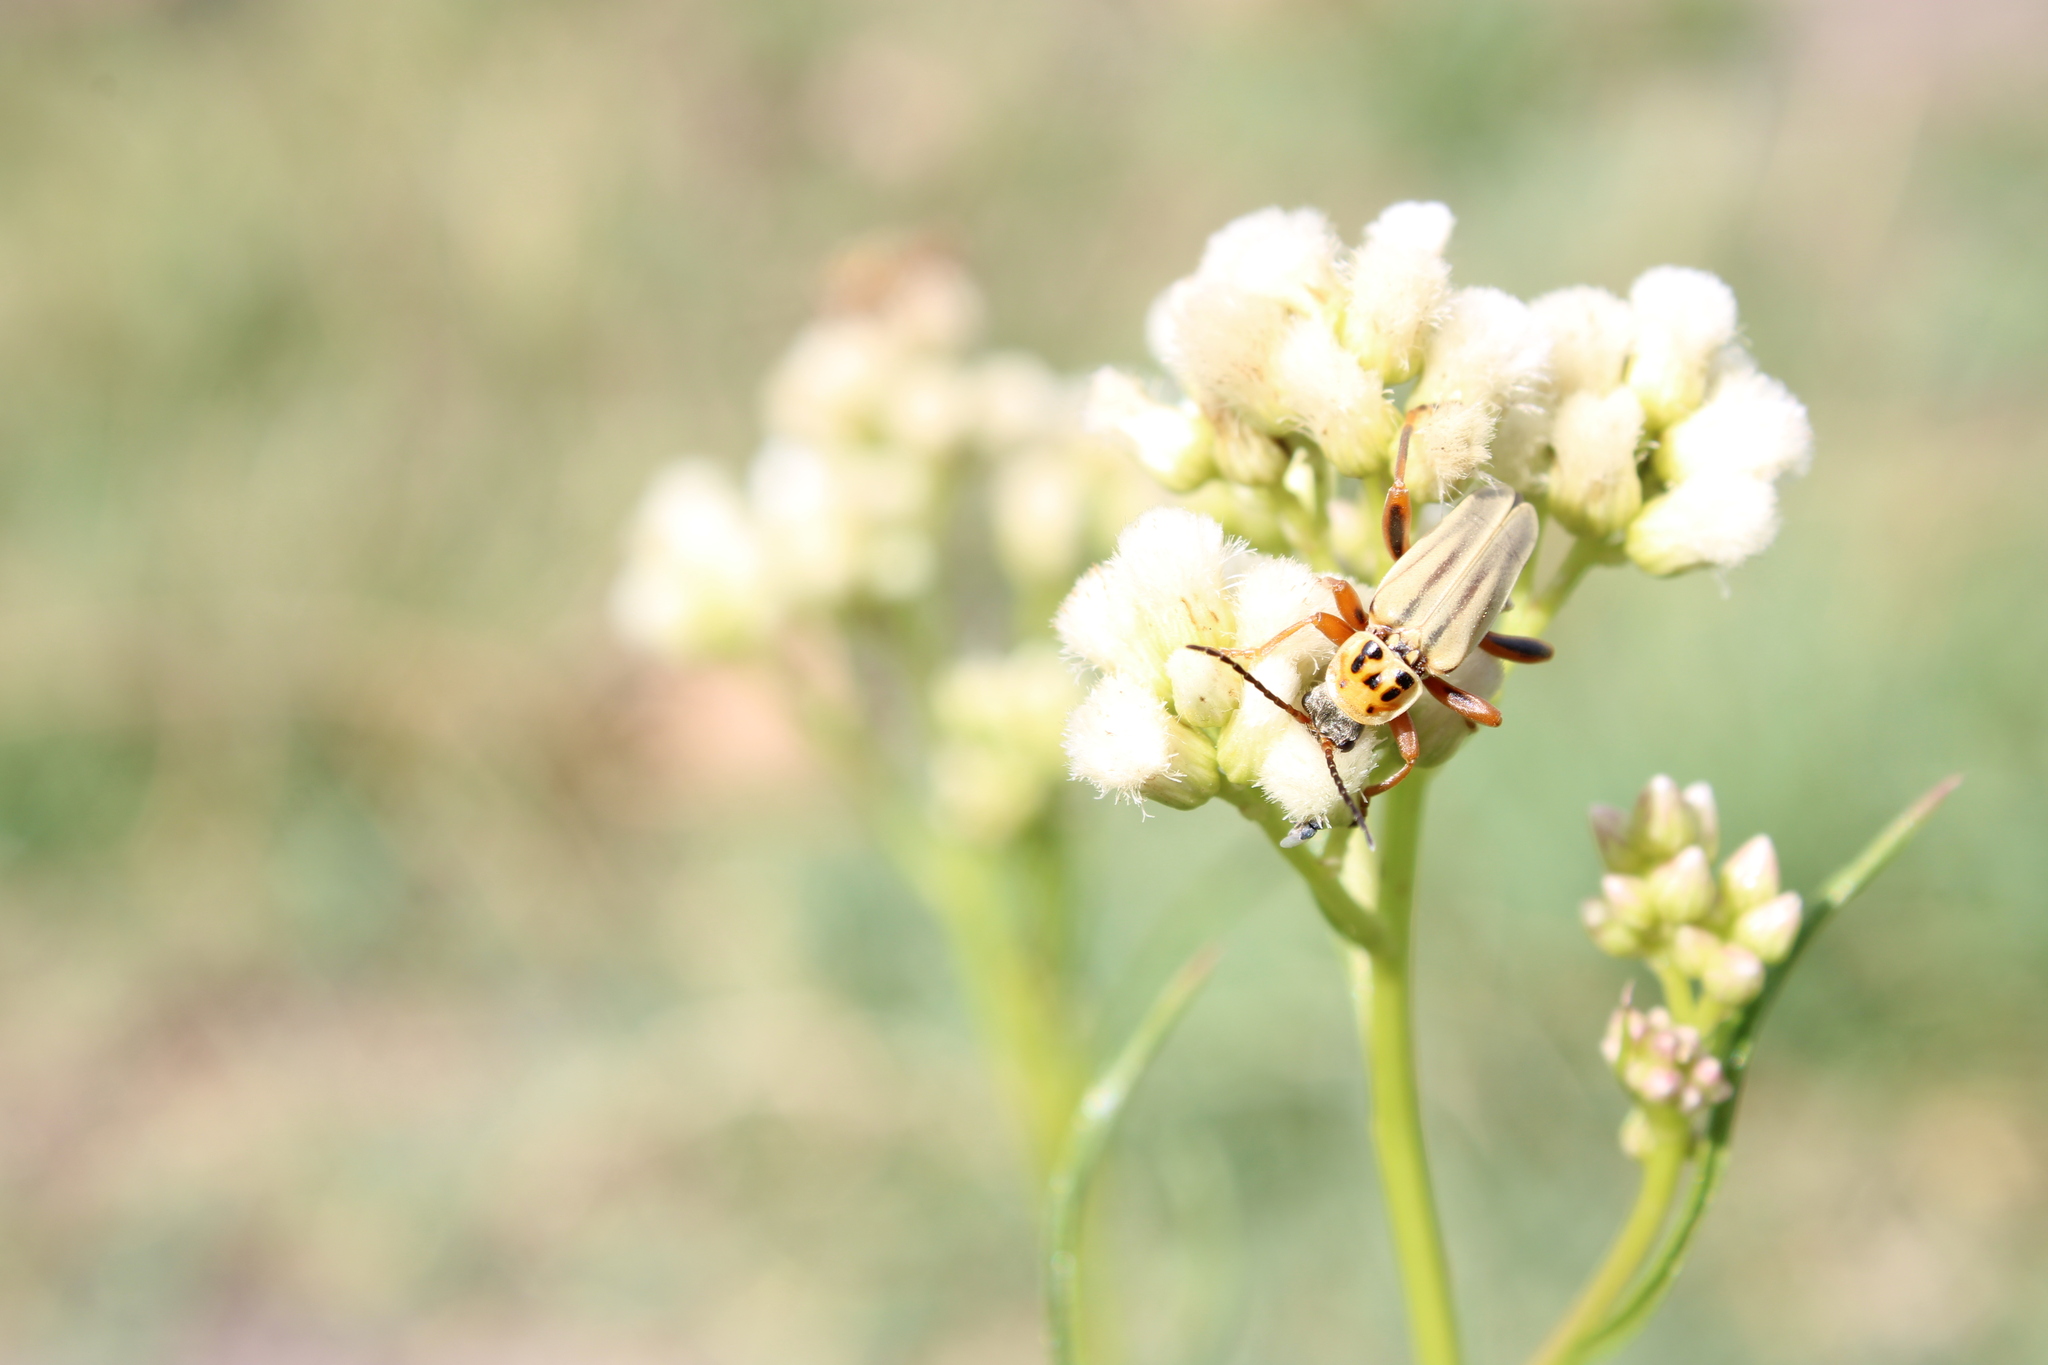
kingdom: Animalia
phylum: Arthropoda
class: Insecta
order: Coleoptera
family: Cantharidae
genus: Chauliognathus
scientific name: Chauliognathus
